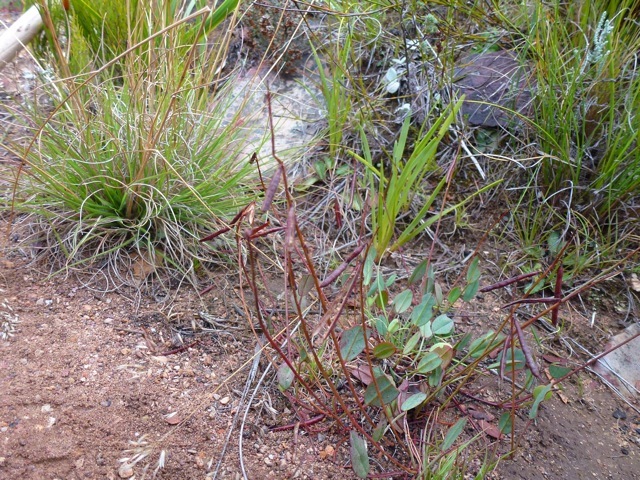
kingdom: Plantae
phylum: Tracheophyta
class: Magnoliopsida
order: Fabales
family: Fabaceae
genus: Indigofera
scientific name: Indigofera
